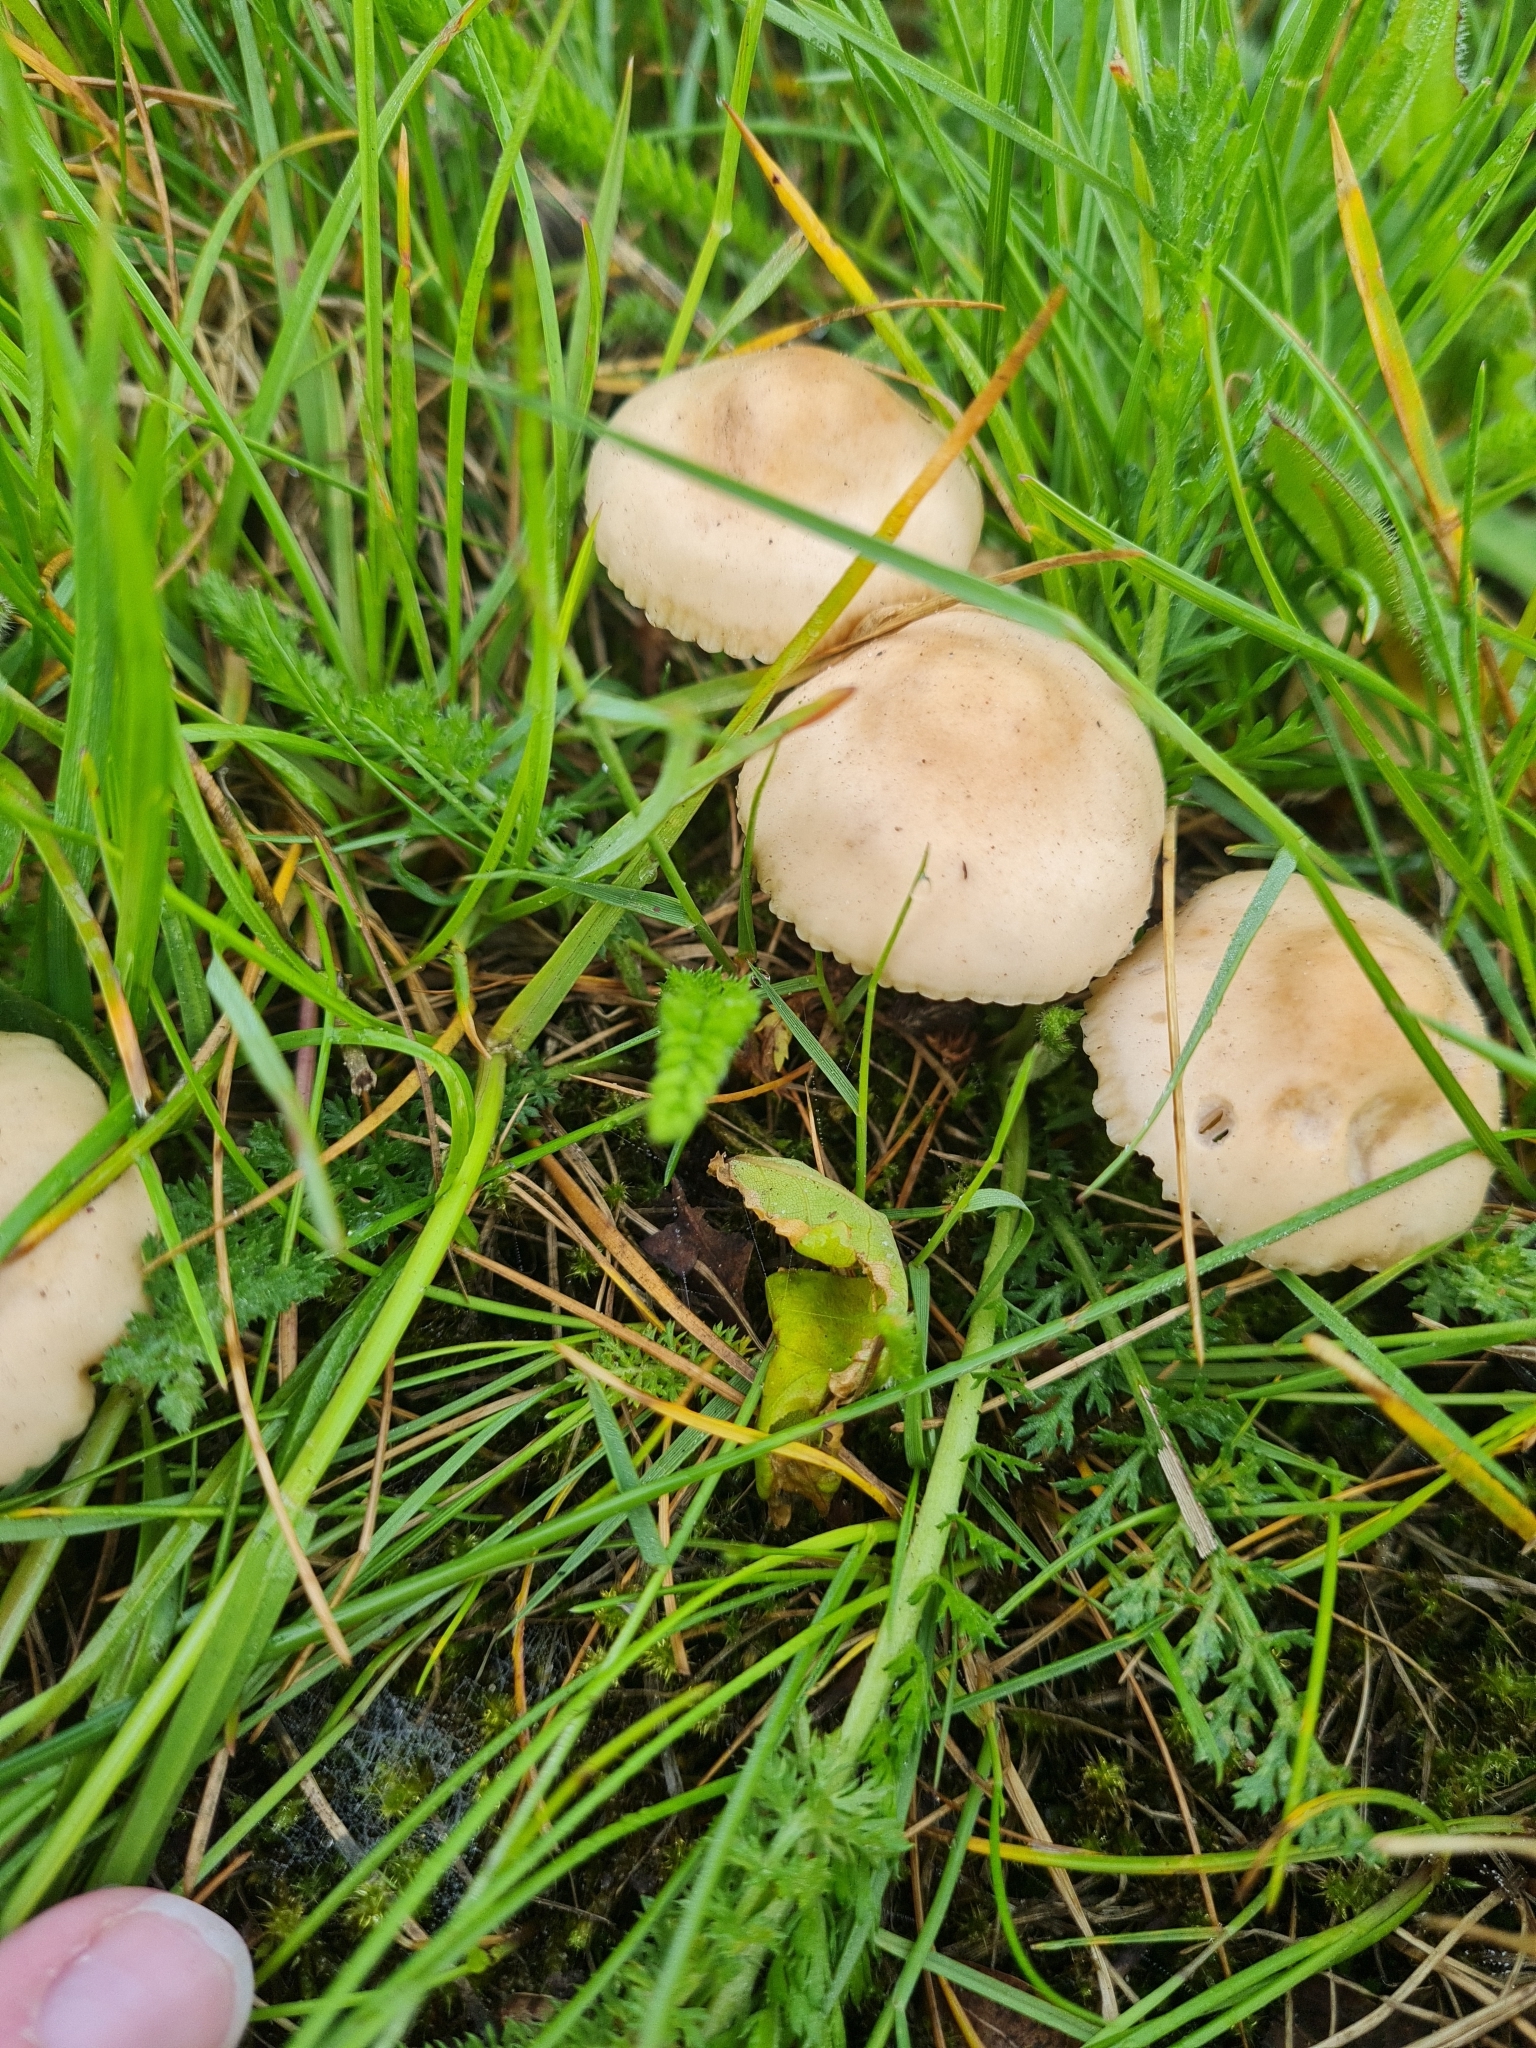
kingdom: Fungi
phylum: Basidiomycota
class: Agaricomycetes
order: Agaricales
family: Marasmiaceae
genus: Marasmius
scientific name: Marasmius oreades
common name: Fairy ring champignon
